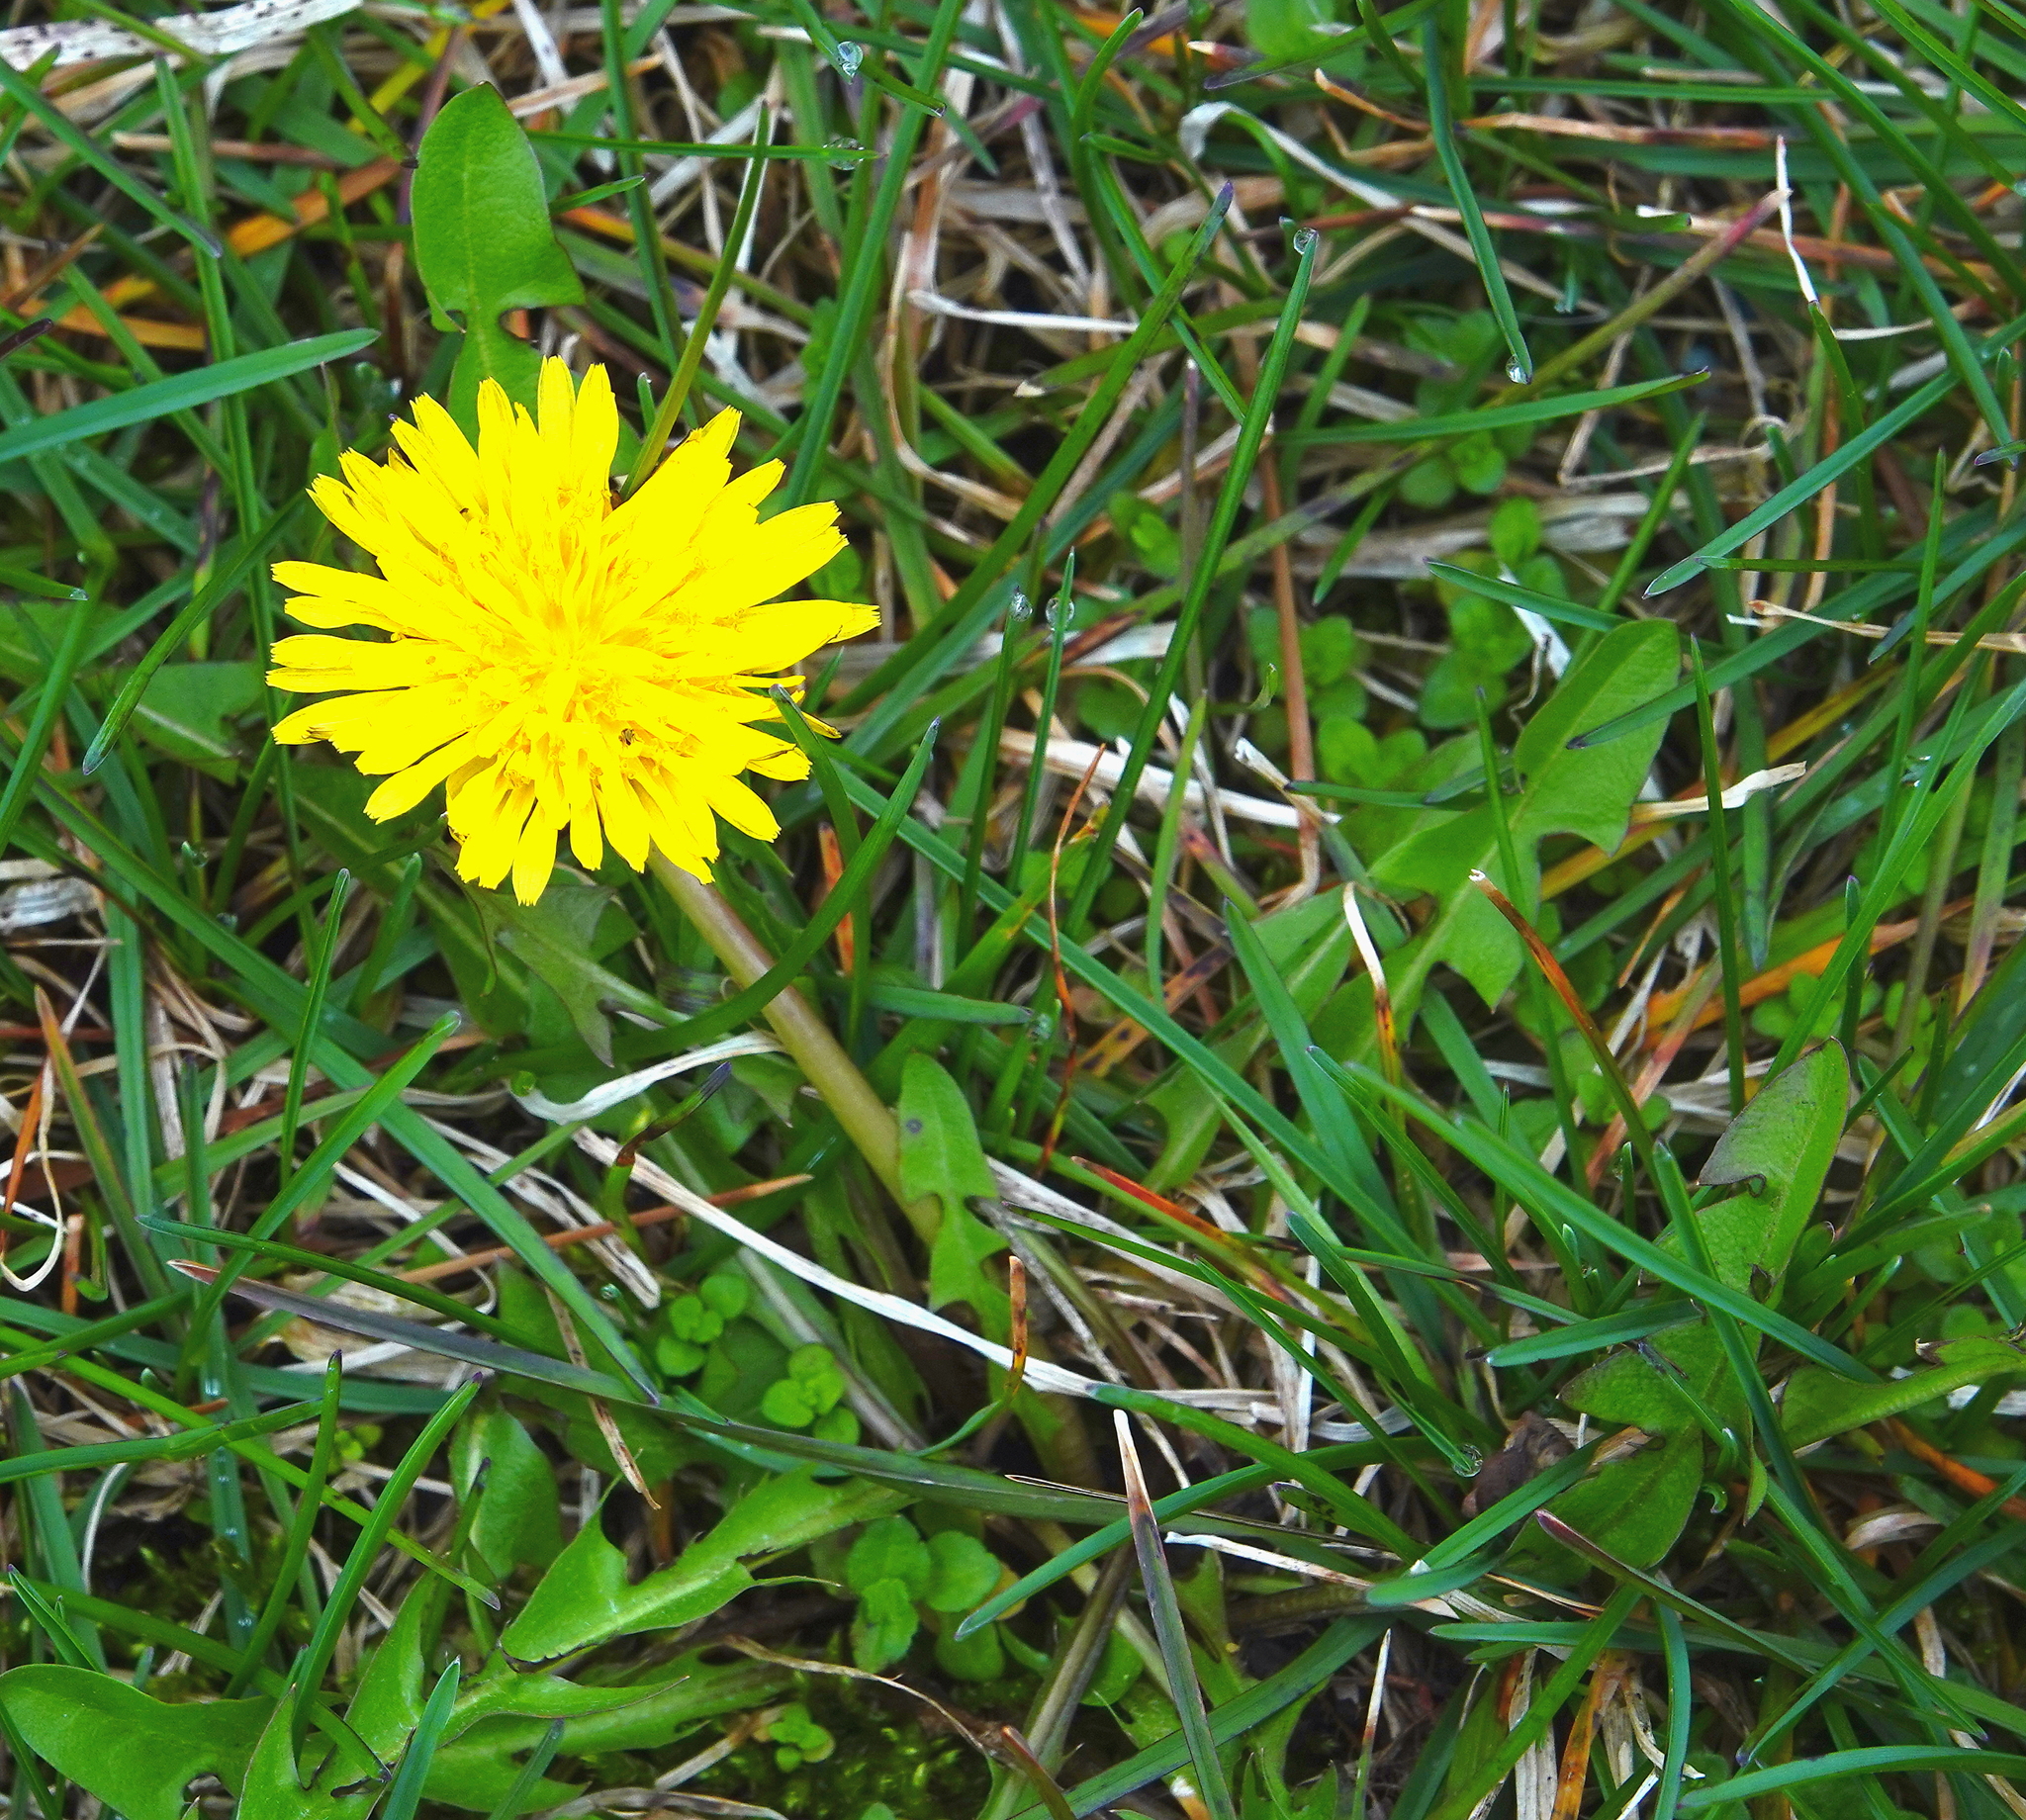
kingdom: Plantae
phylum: Tracheophyta
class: Magnoliopsida
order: Asterales
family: Asteraceae
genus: Taraxacum
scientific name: Taraxacum officinale
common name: Common dandelion
